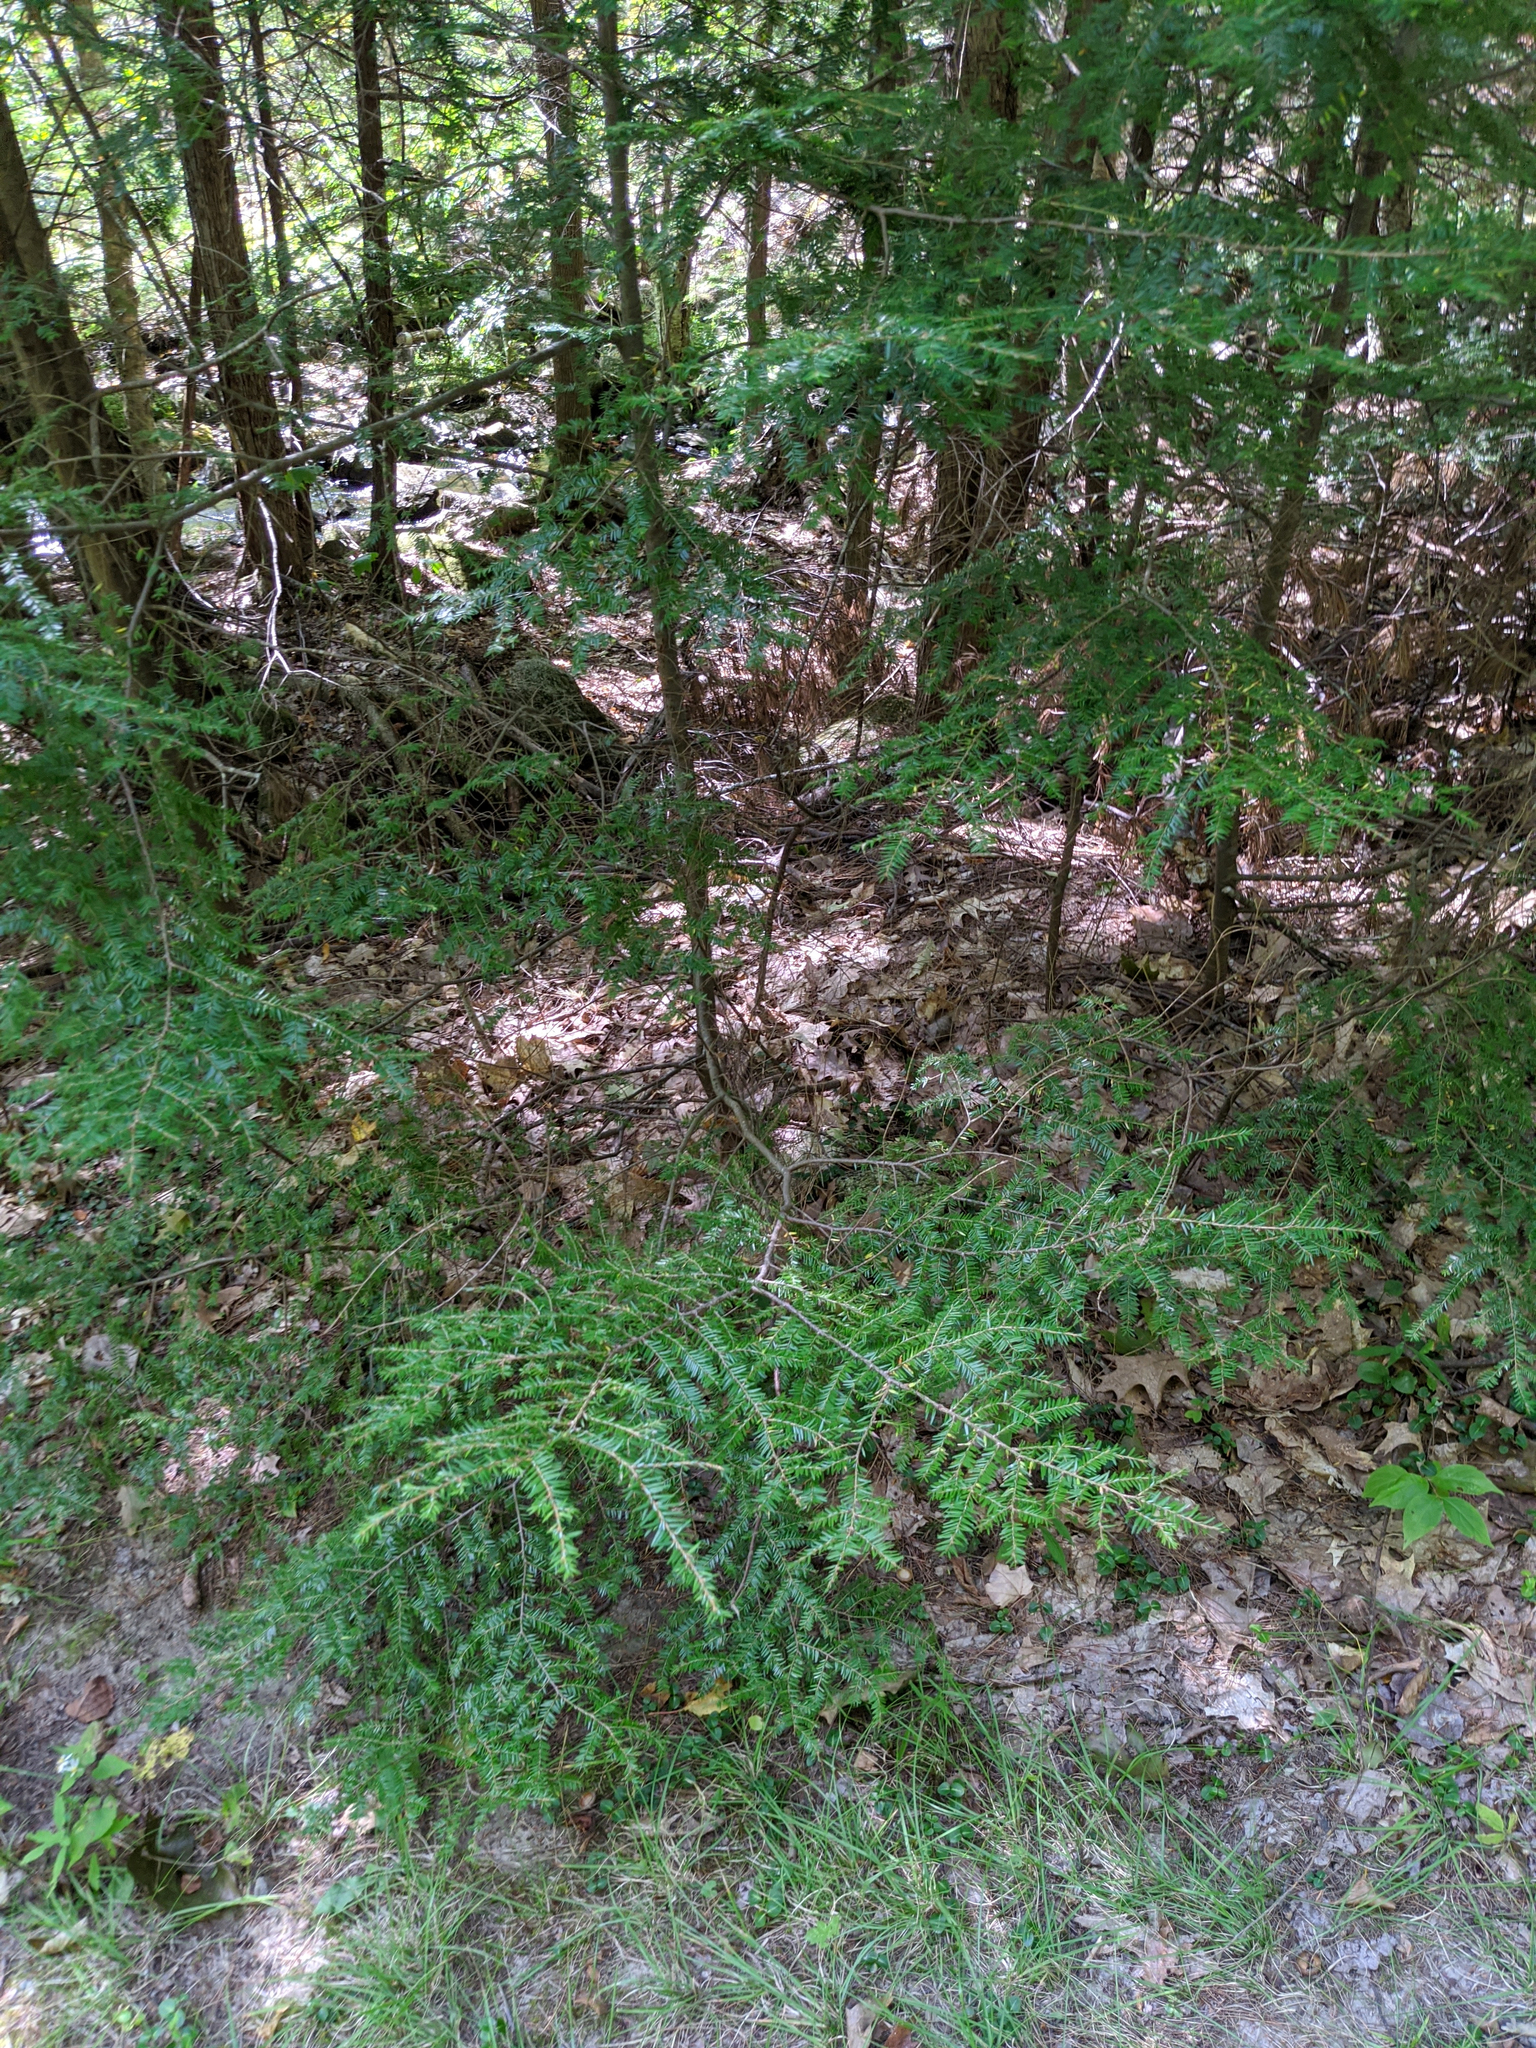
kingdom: Plantae
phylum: Tracheophyta
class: Pinopsida
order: Pinales
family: Pinaceae
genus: Tsuga
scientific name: Tsuga canadensis
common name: Eastern hemlock
